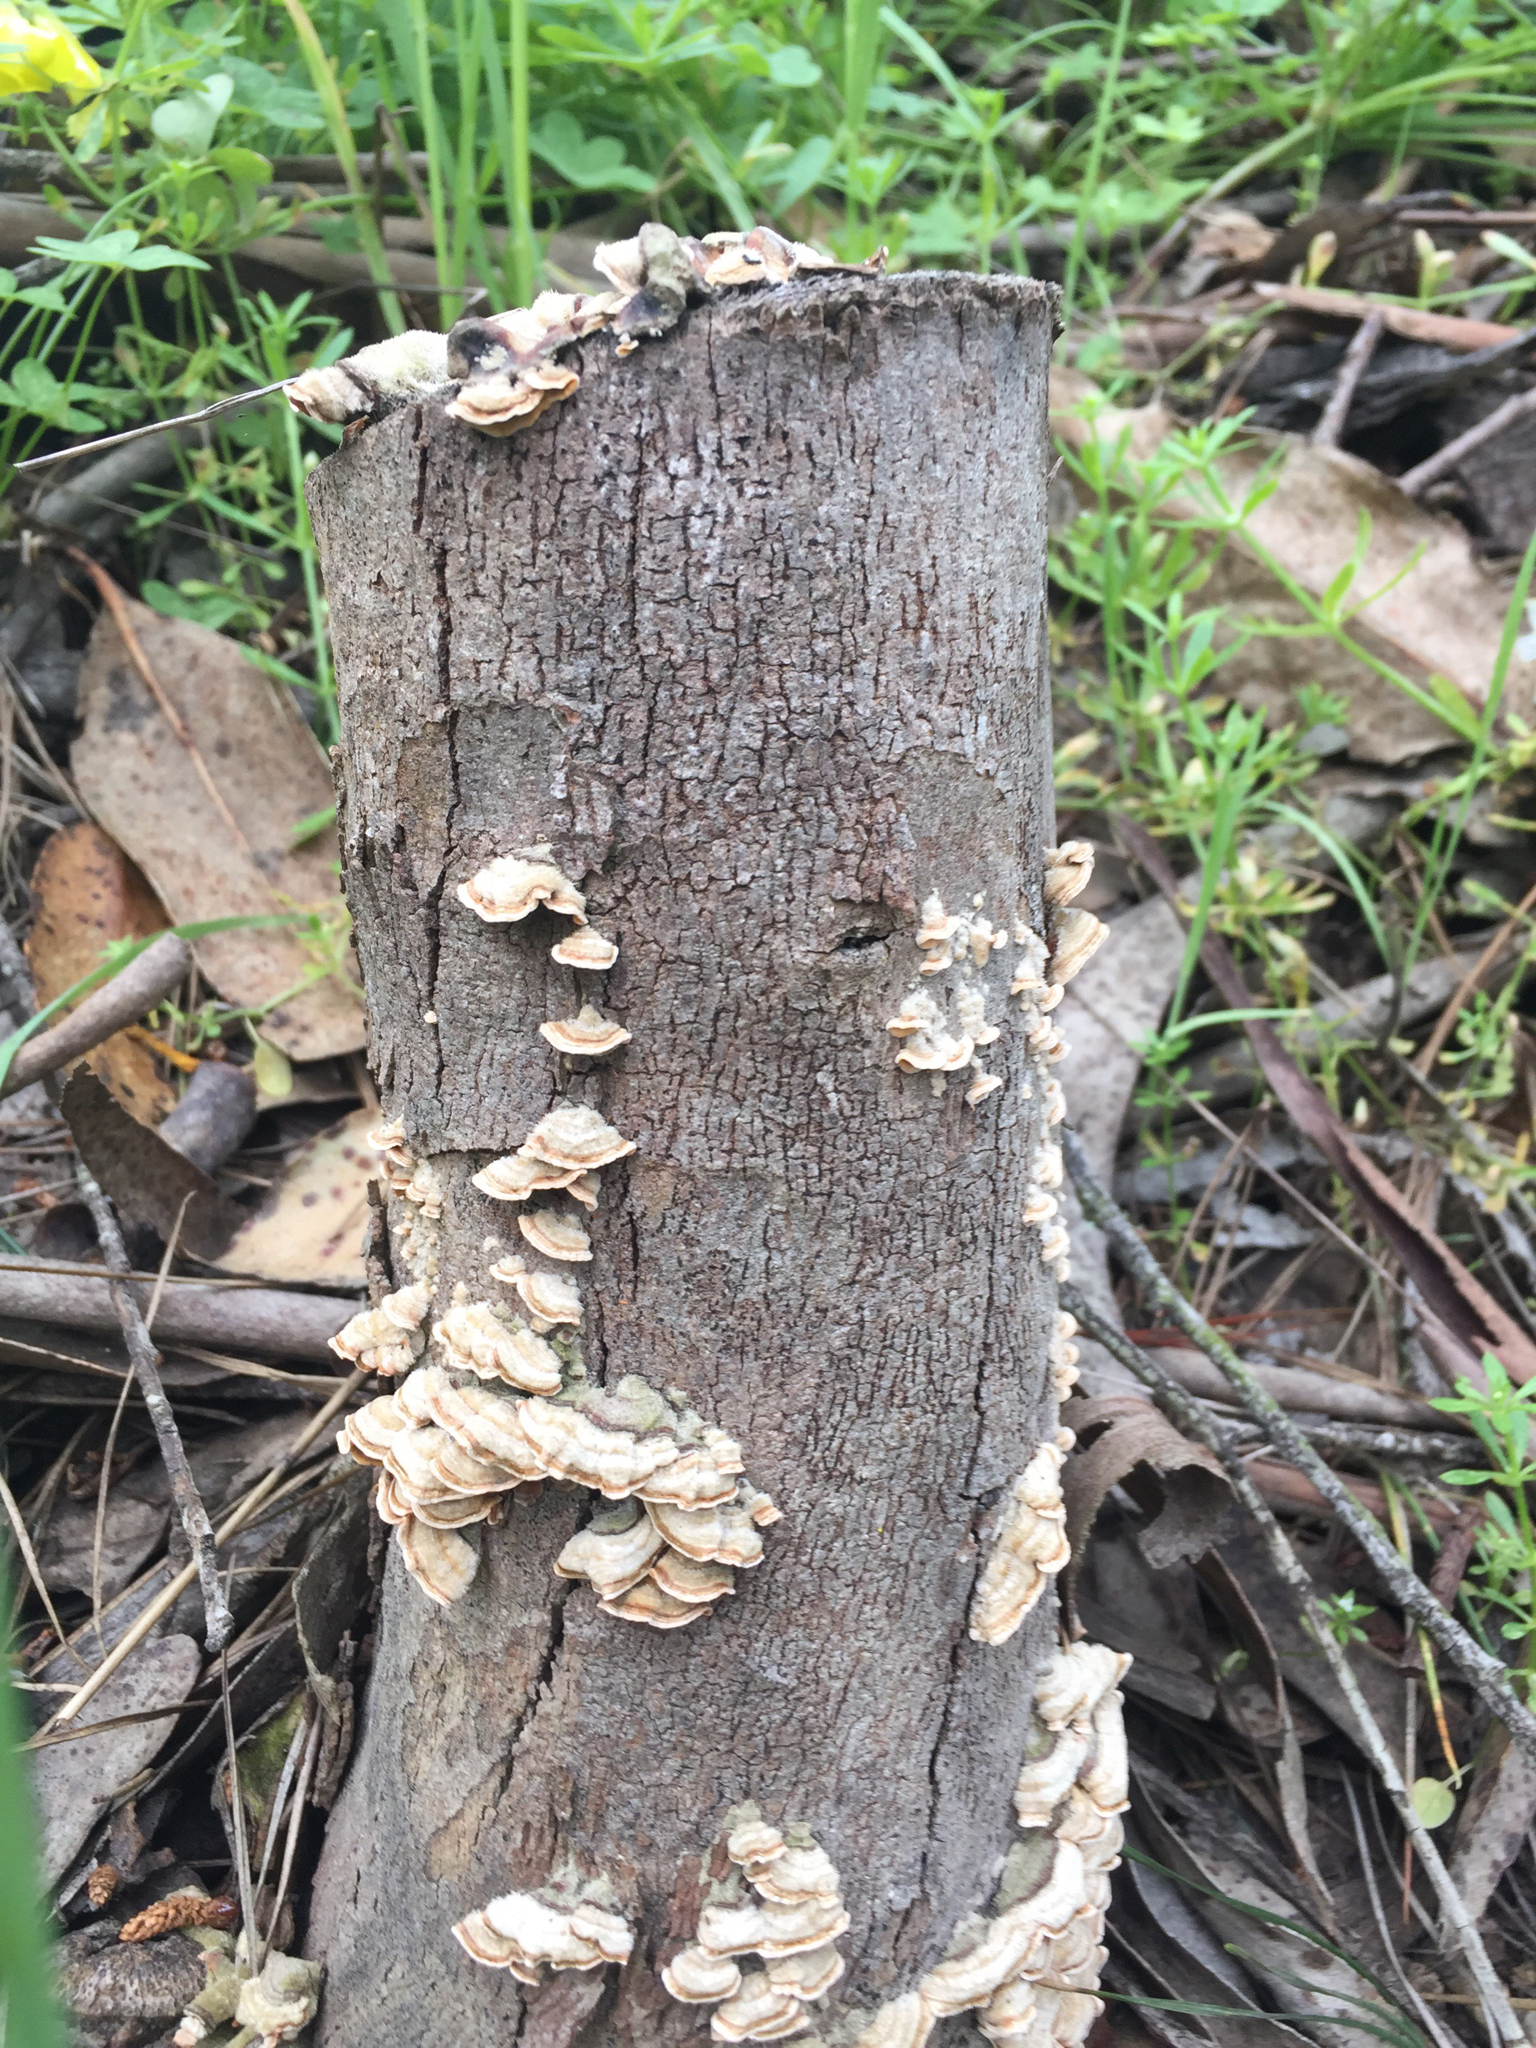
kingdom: Fungi
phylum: Basidiomycota
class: Agaricomycetes
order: Russulales
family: Stereaceae
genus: Stereum
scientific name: Stereum hirsutum
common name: Hairy curtain crust
